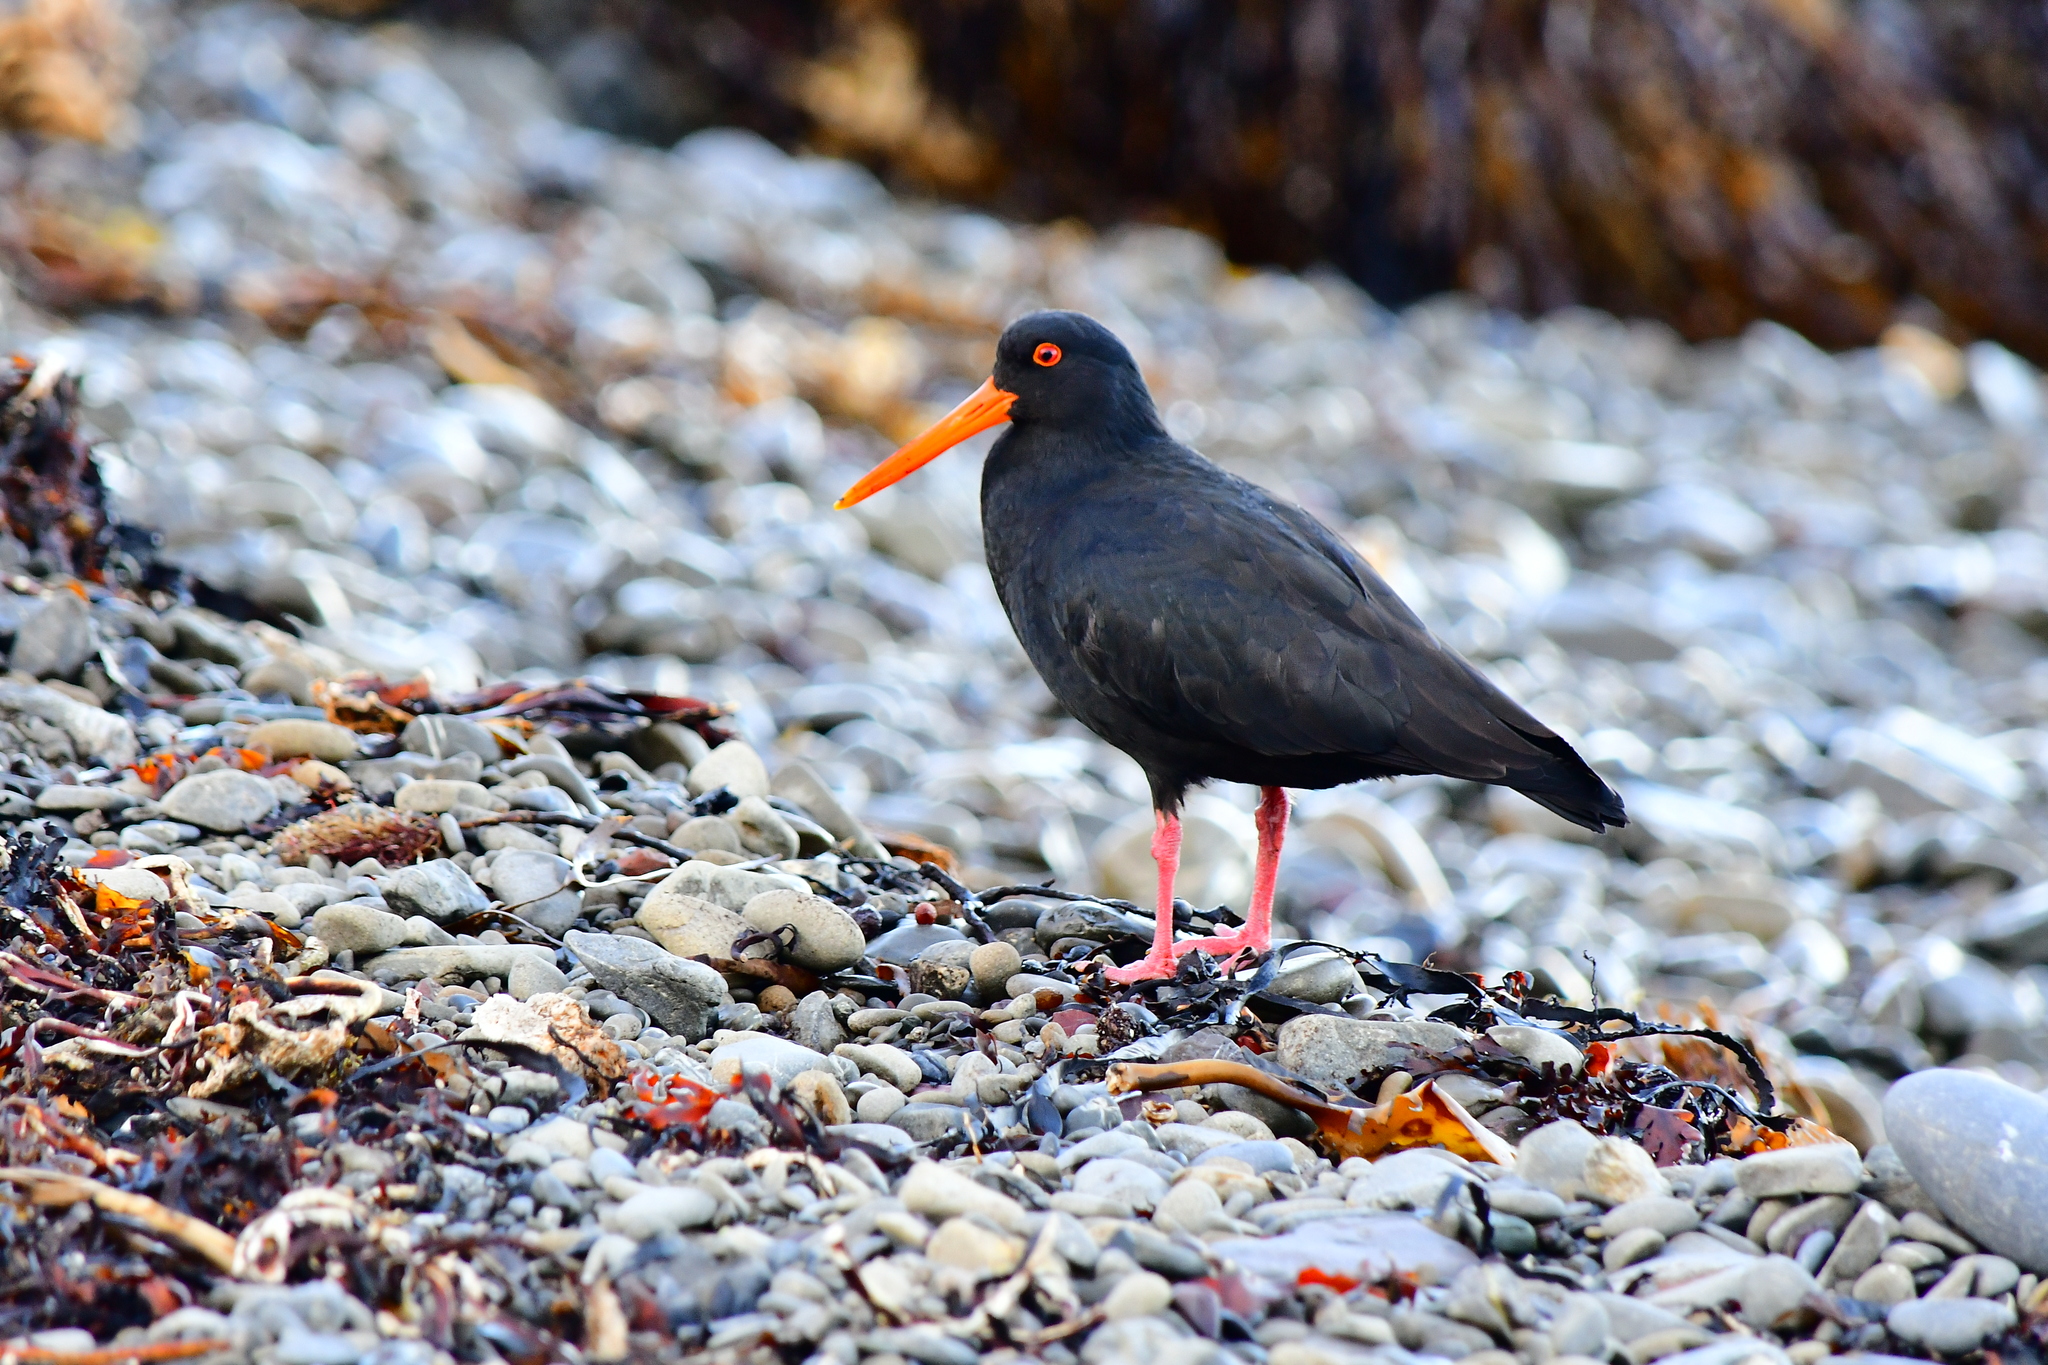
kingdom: Animalia
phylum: Chordata
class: Aves
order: Charadriiformes
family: Haematopodidae
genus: Haematopus
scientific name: Haematopus unicolor
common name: Variable oystercatcher
